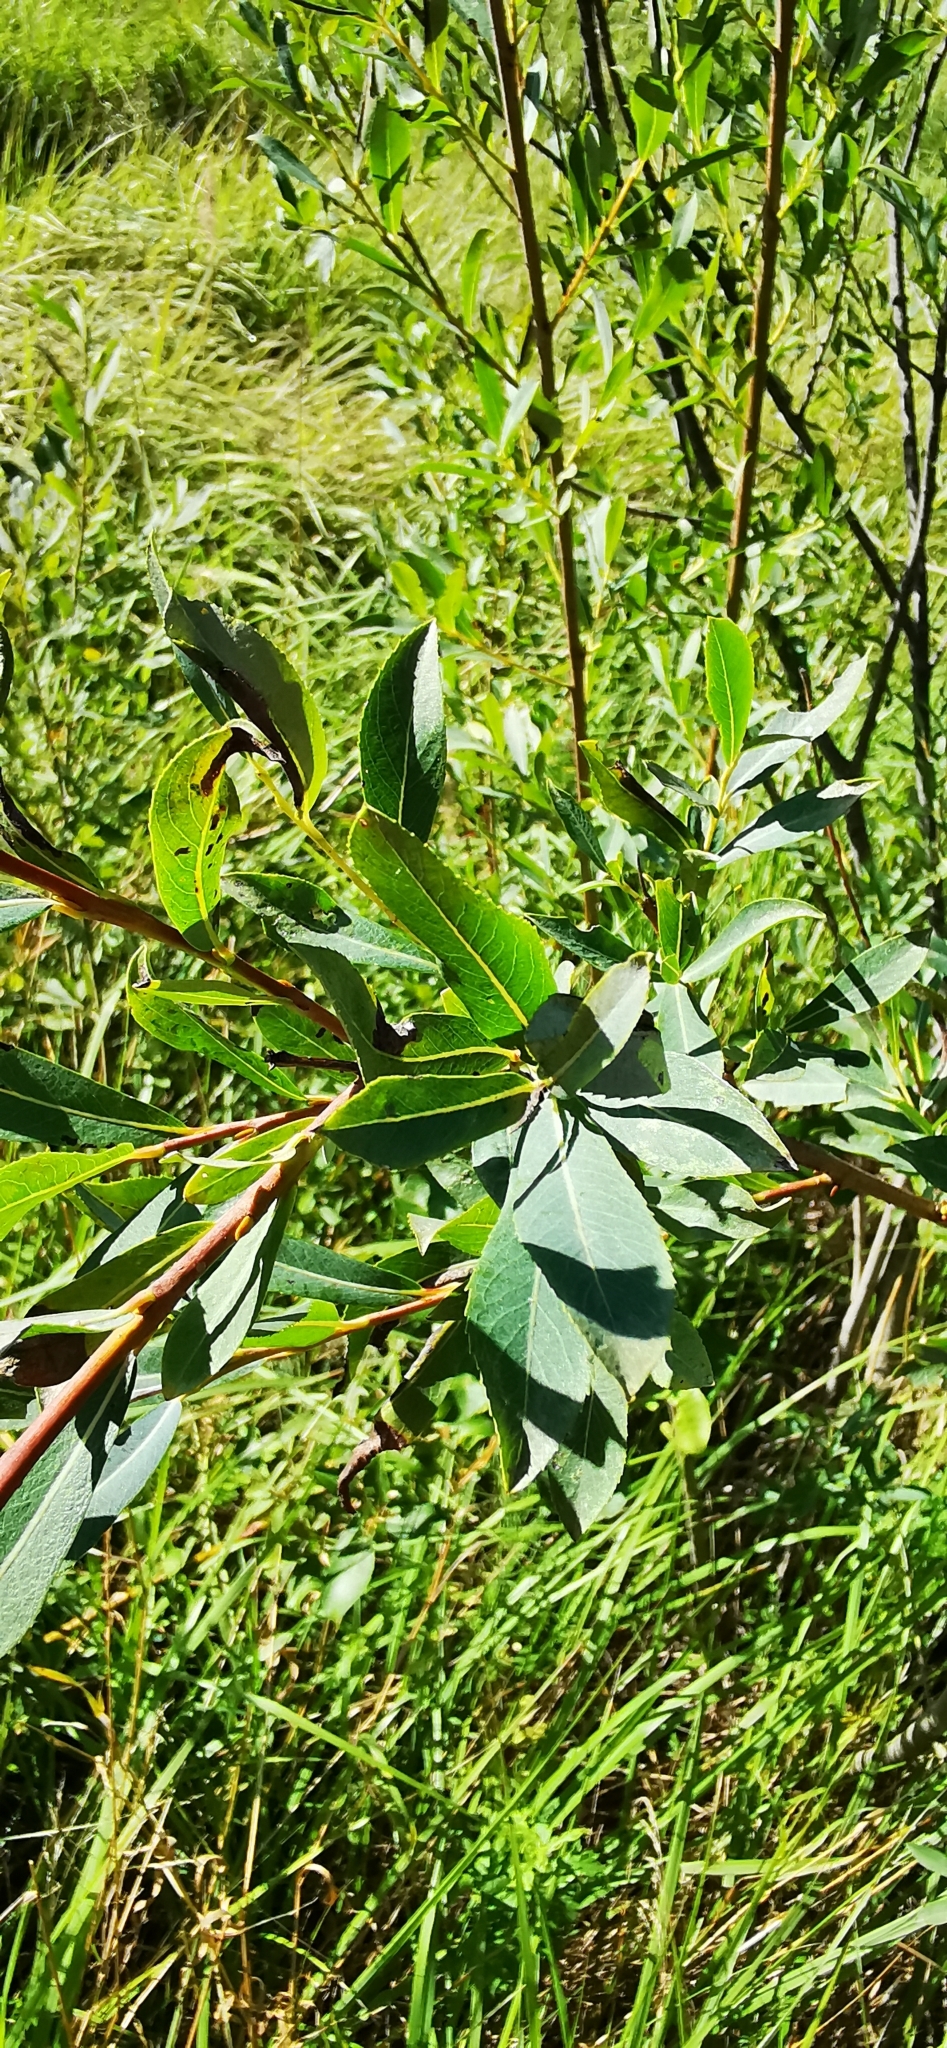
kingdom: Plantae
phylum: Tracheophyta
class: Magnoliopsida
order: Malpighiales
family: Salicaceae
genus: Salix
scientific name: Salix purpurea
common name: Purple willow
